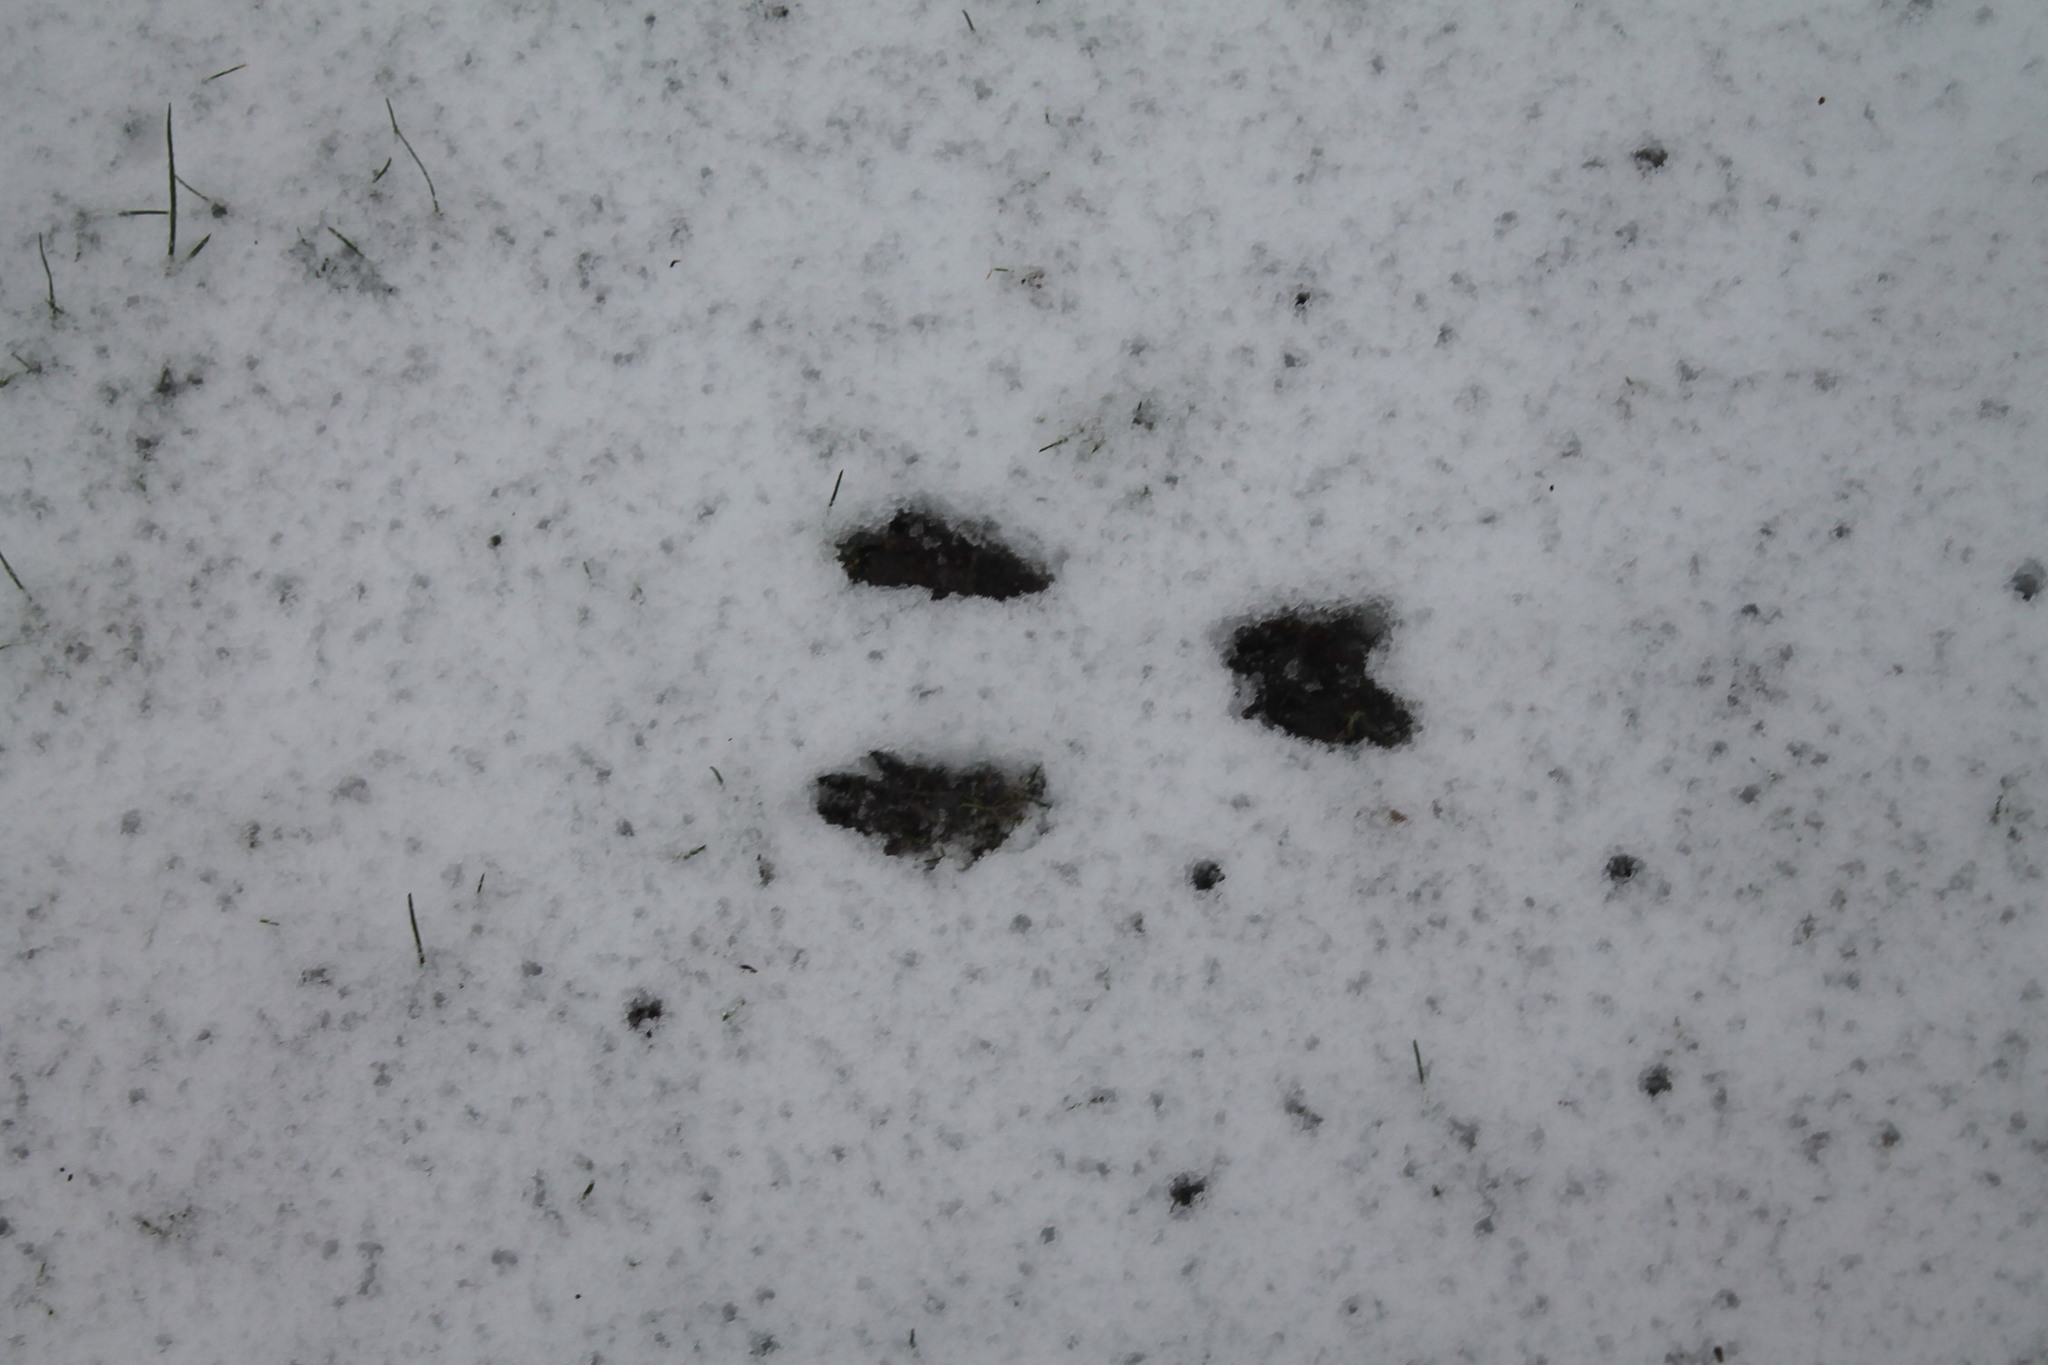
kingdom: Animalia
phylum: Chordata
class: Mammalia
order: Rodentia
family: Sciuridae
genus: Sciurus
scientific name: Sciurus carolinensis
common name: Eastern gray squirrel
